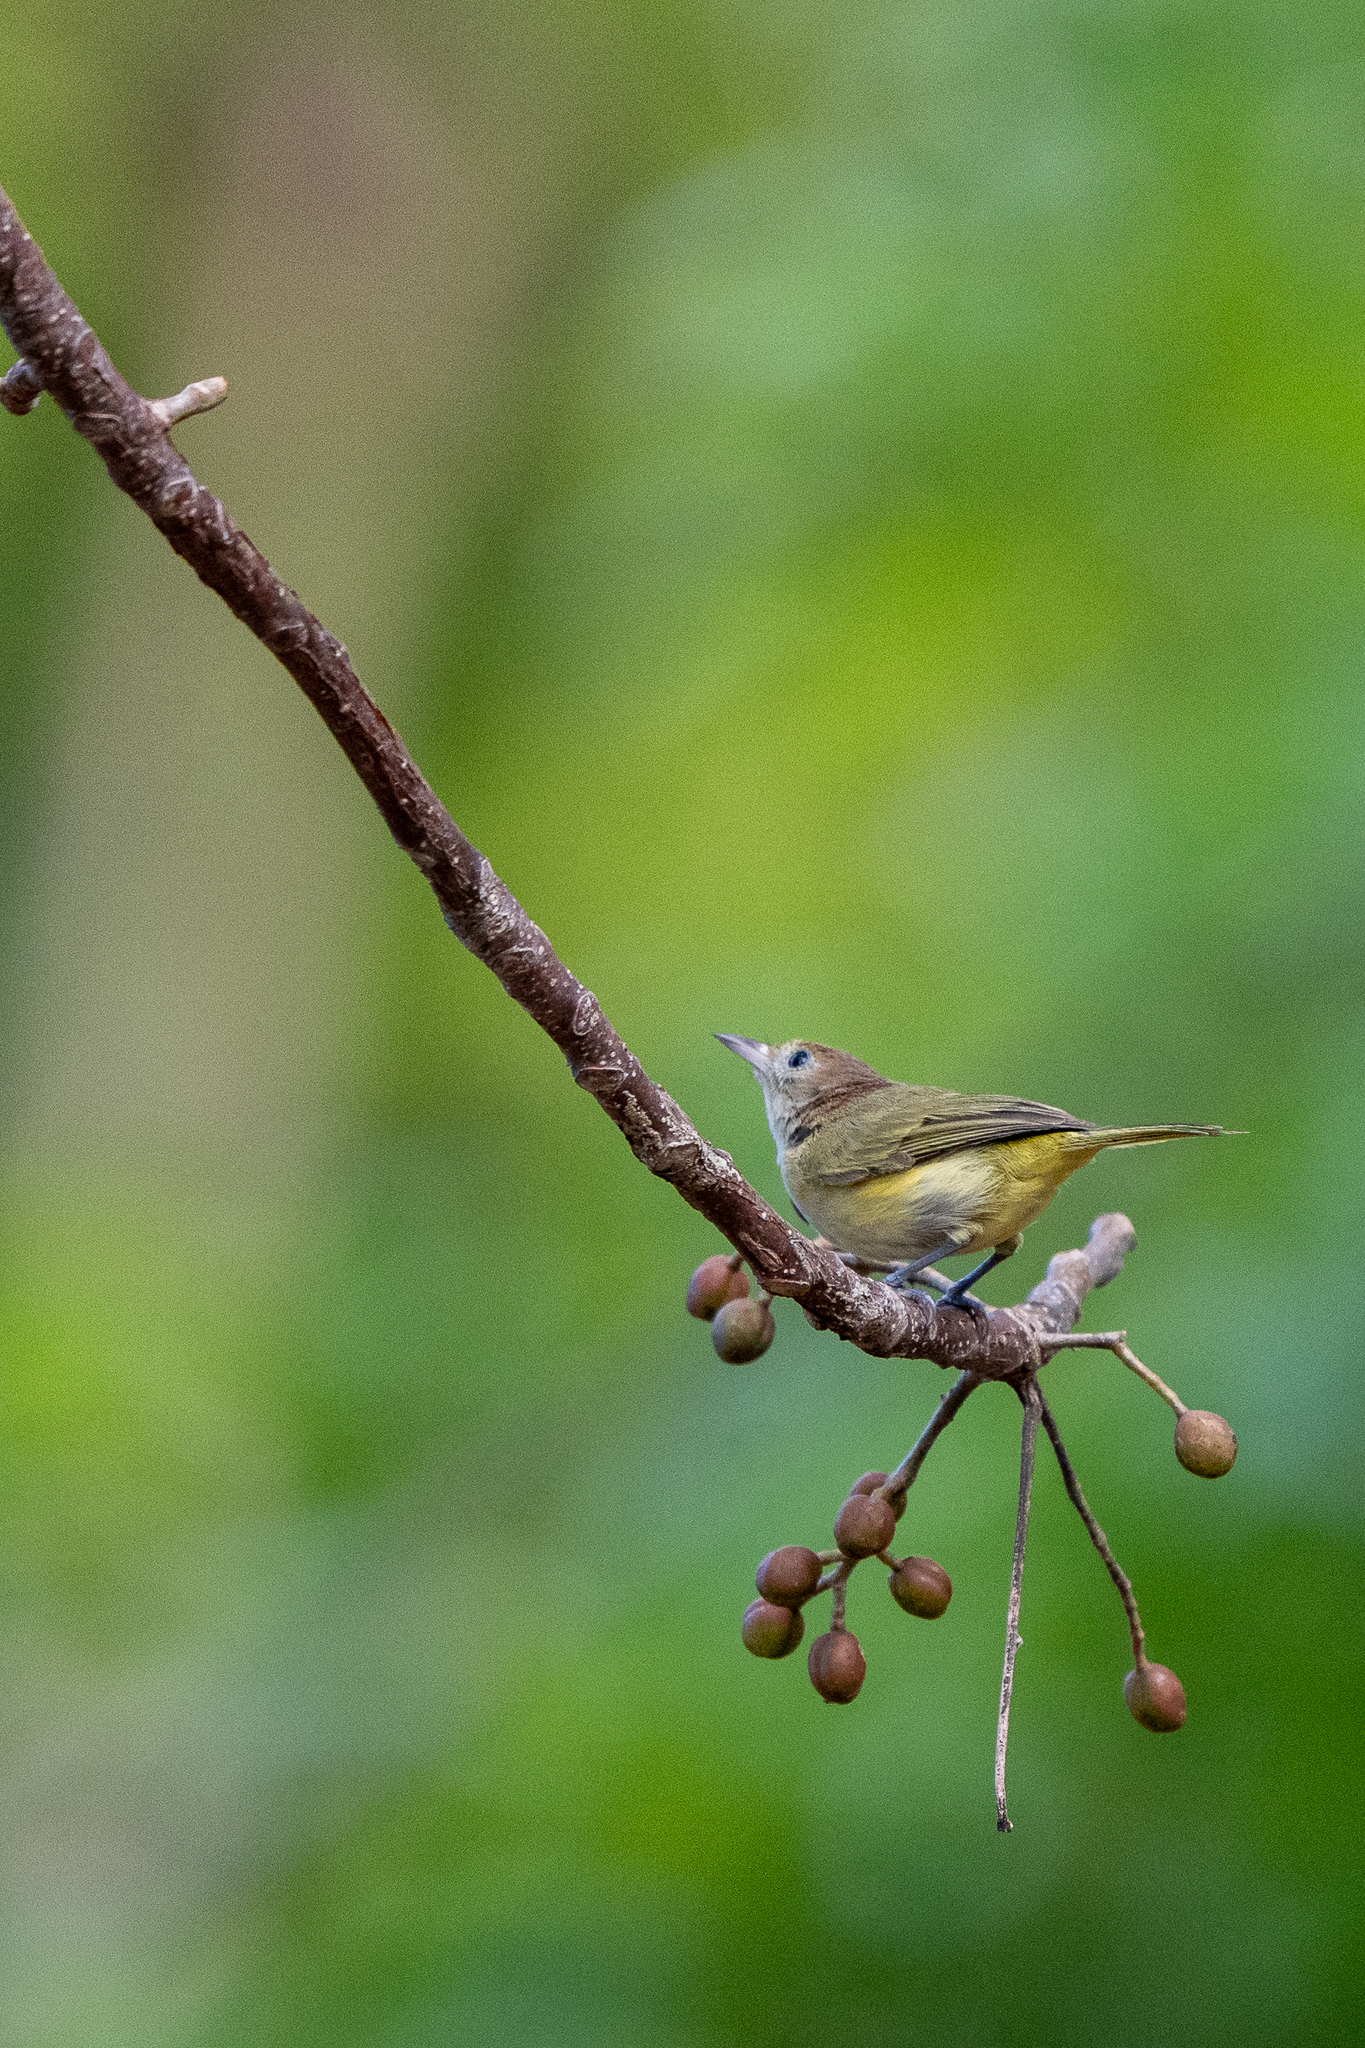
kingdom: Animalia
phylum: Chordata
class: Aves
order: Passeriformes
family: Vireonidae
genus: Hylophilus
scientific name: Hylophilus aurantiifrons
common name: Golden-fronted greenlet
